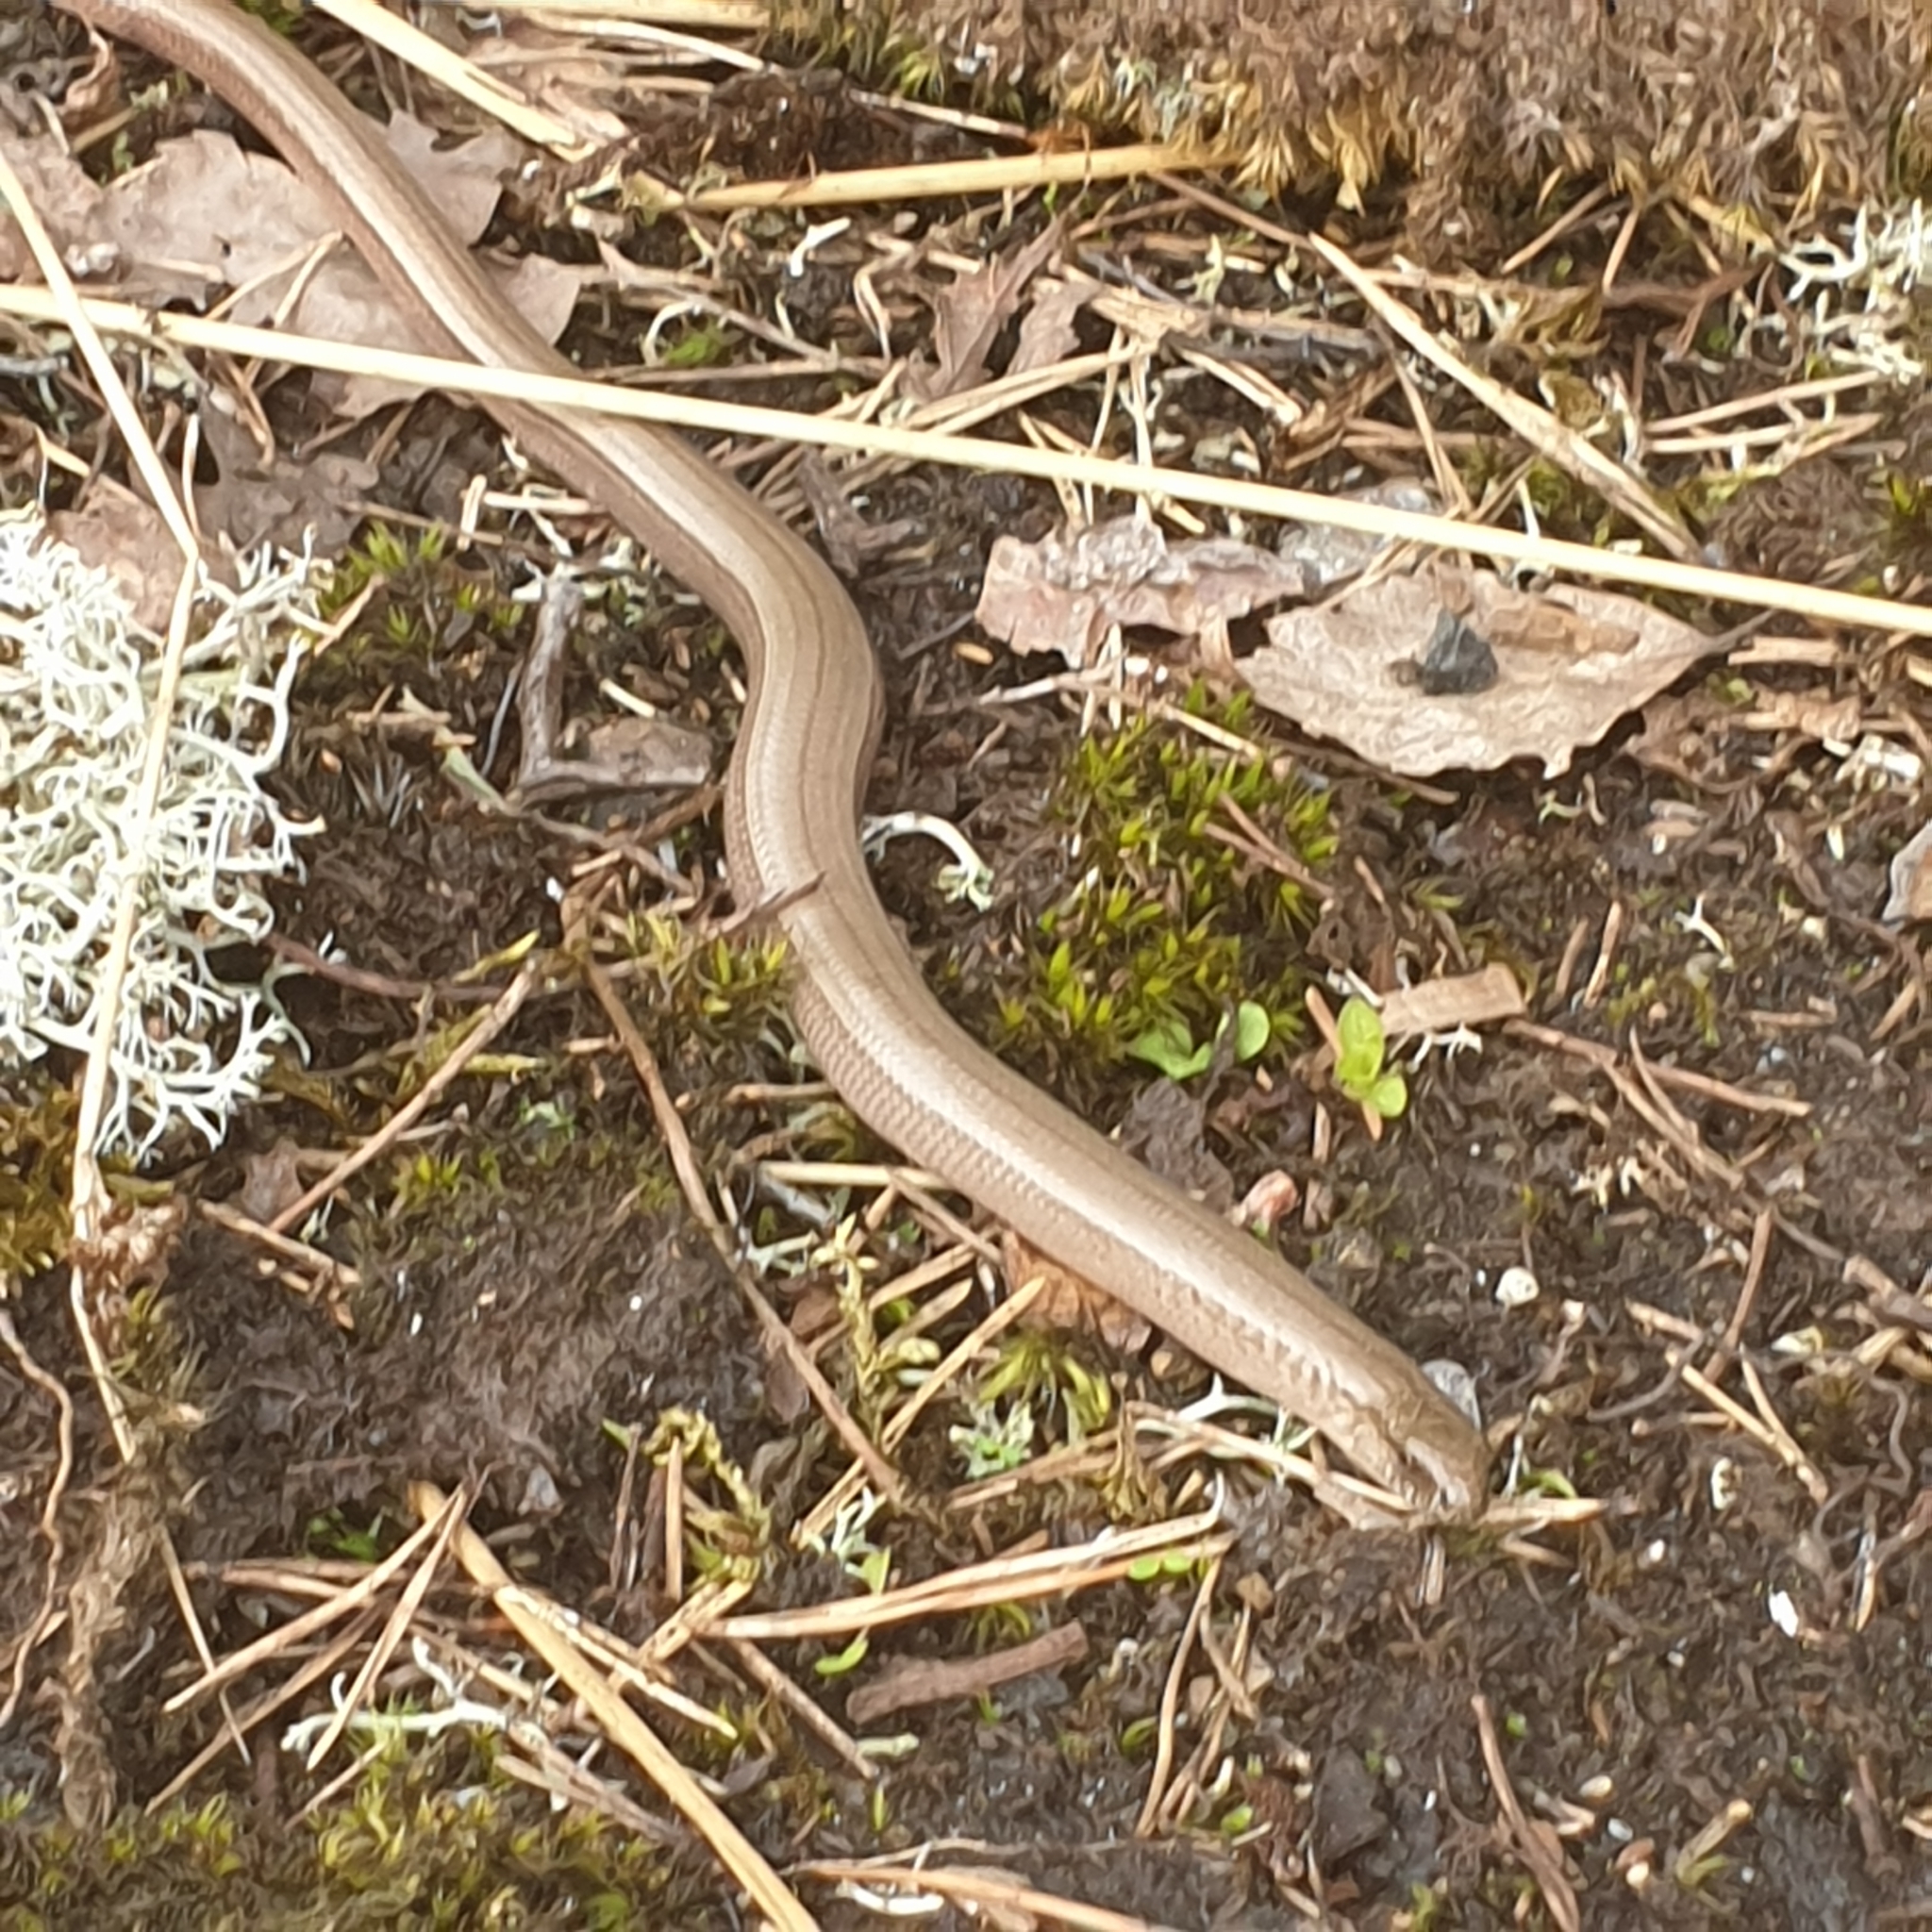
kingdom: Animalia
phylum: Chordata
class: Squamata
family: Anguidae
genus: Anguis
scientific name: Anguis fragilis
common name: Slow worm
